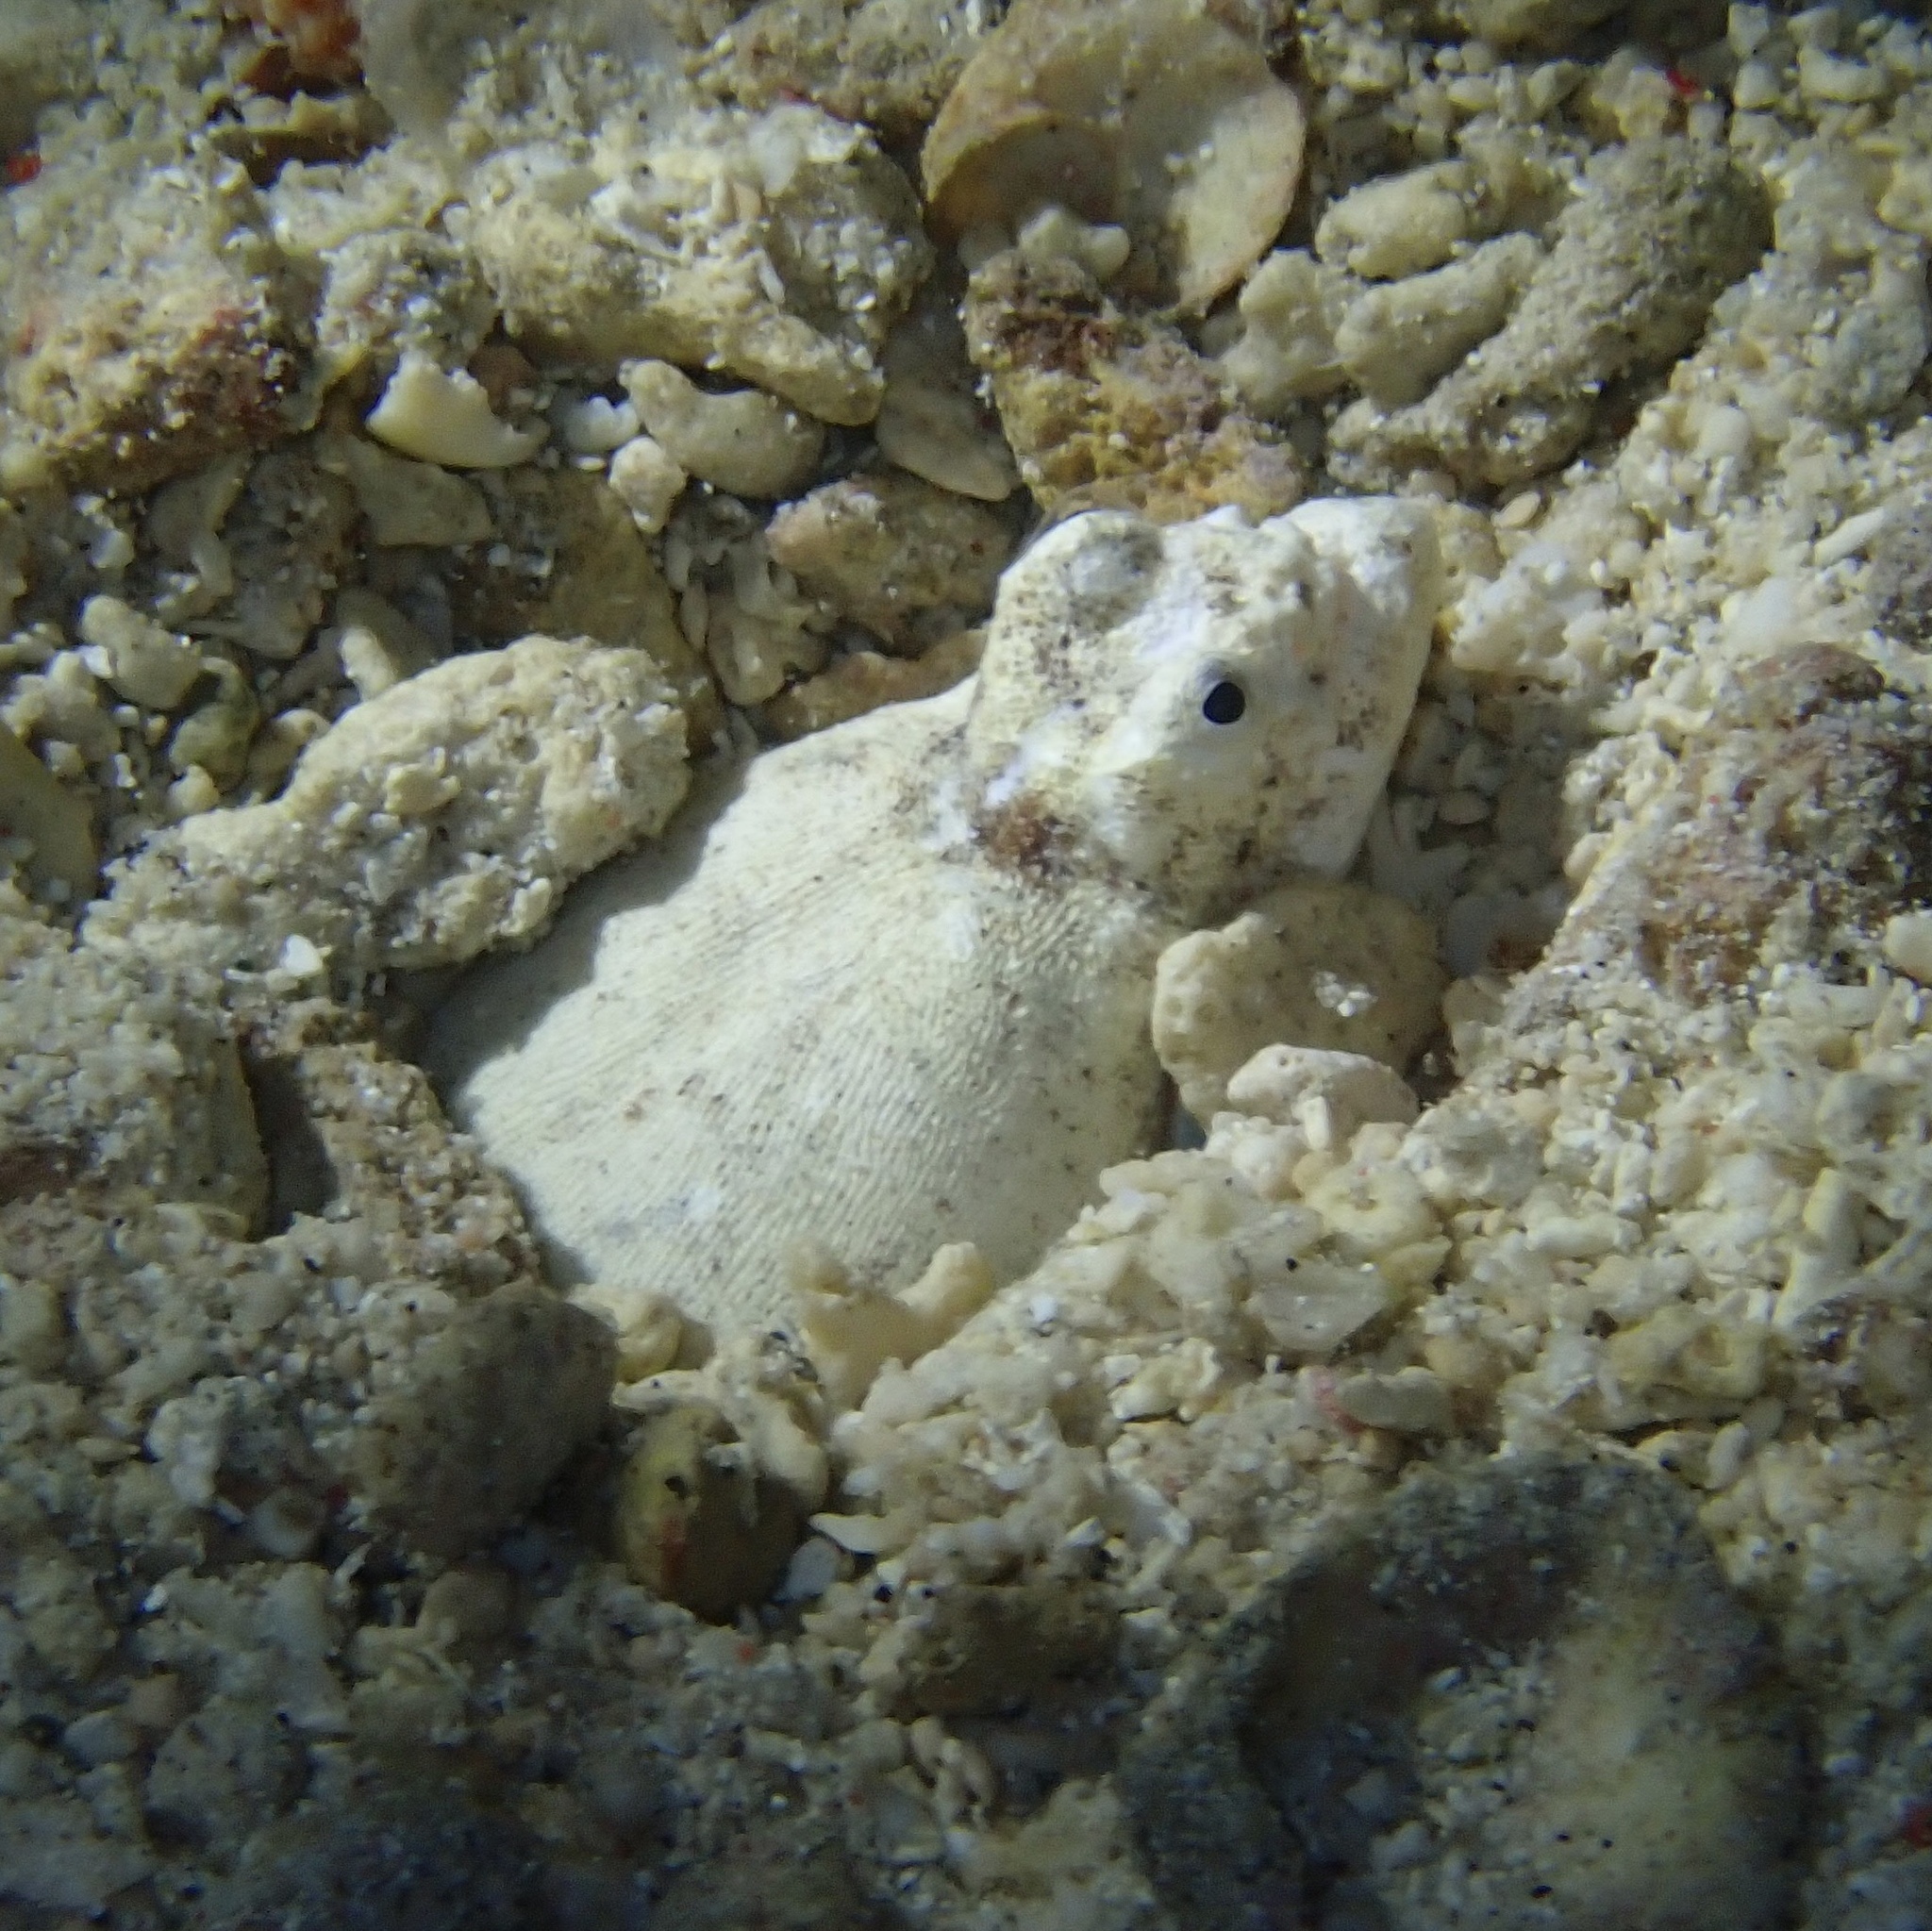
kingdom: Animalia
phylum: Chordata
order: Anguilliformes
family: Ophichthidae
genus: Brachysomophis
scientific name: Brachysomophis henshawi
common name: Crocodile snake eel
